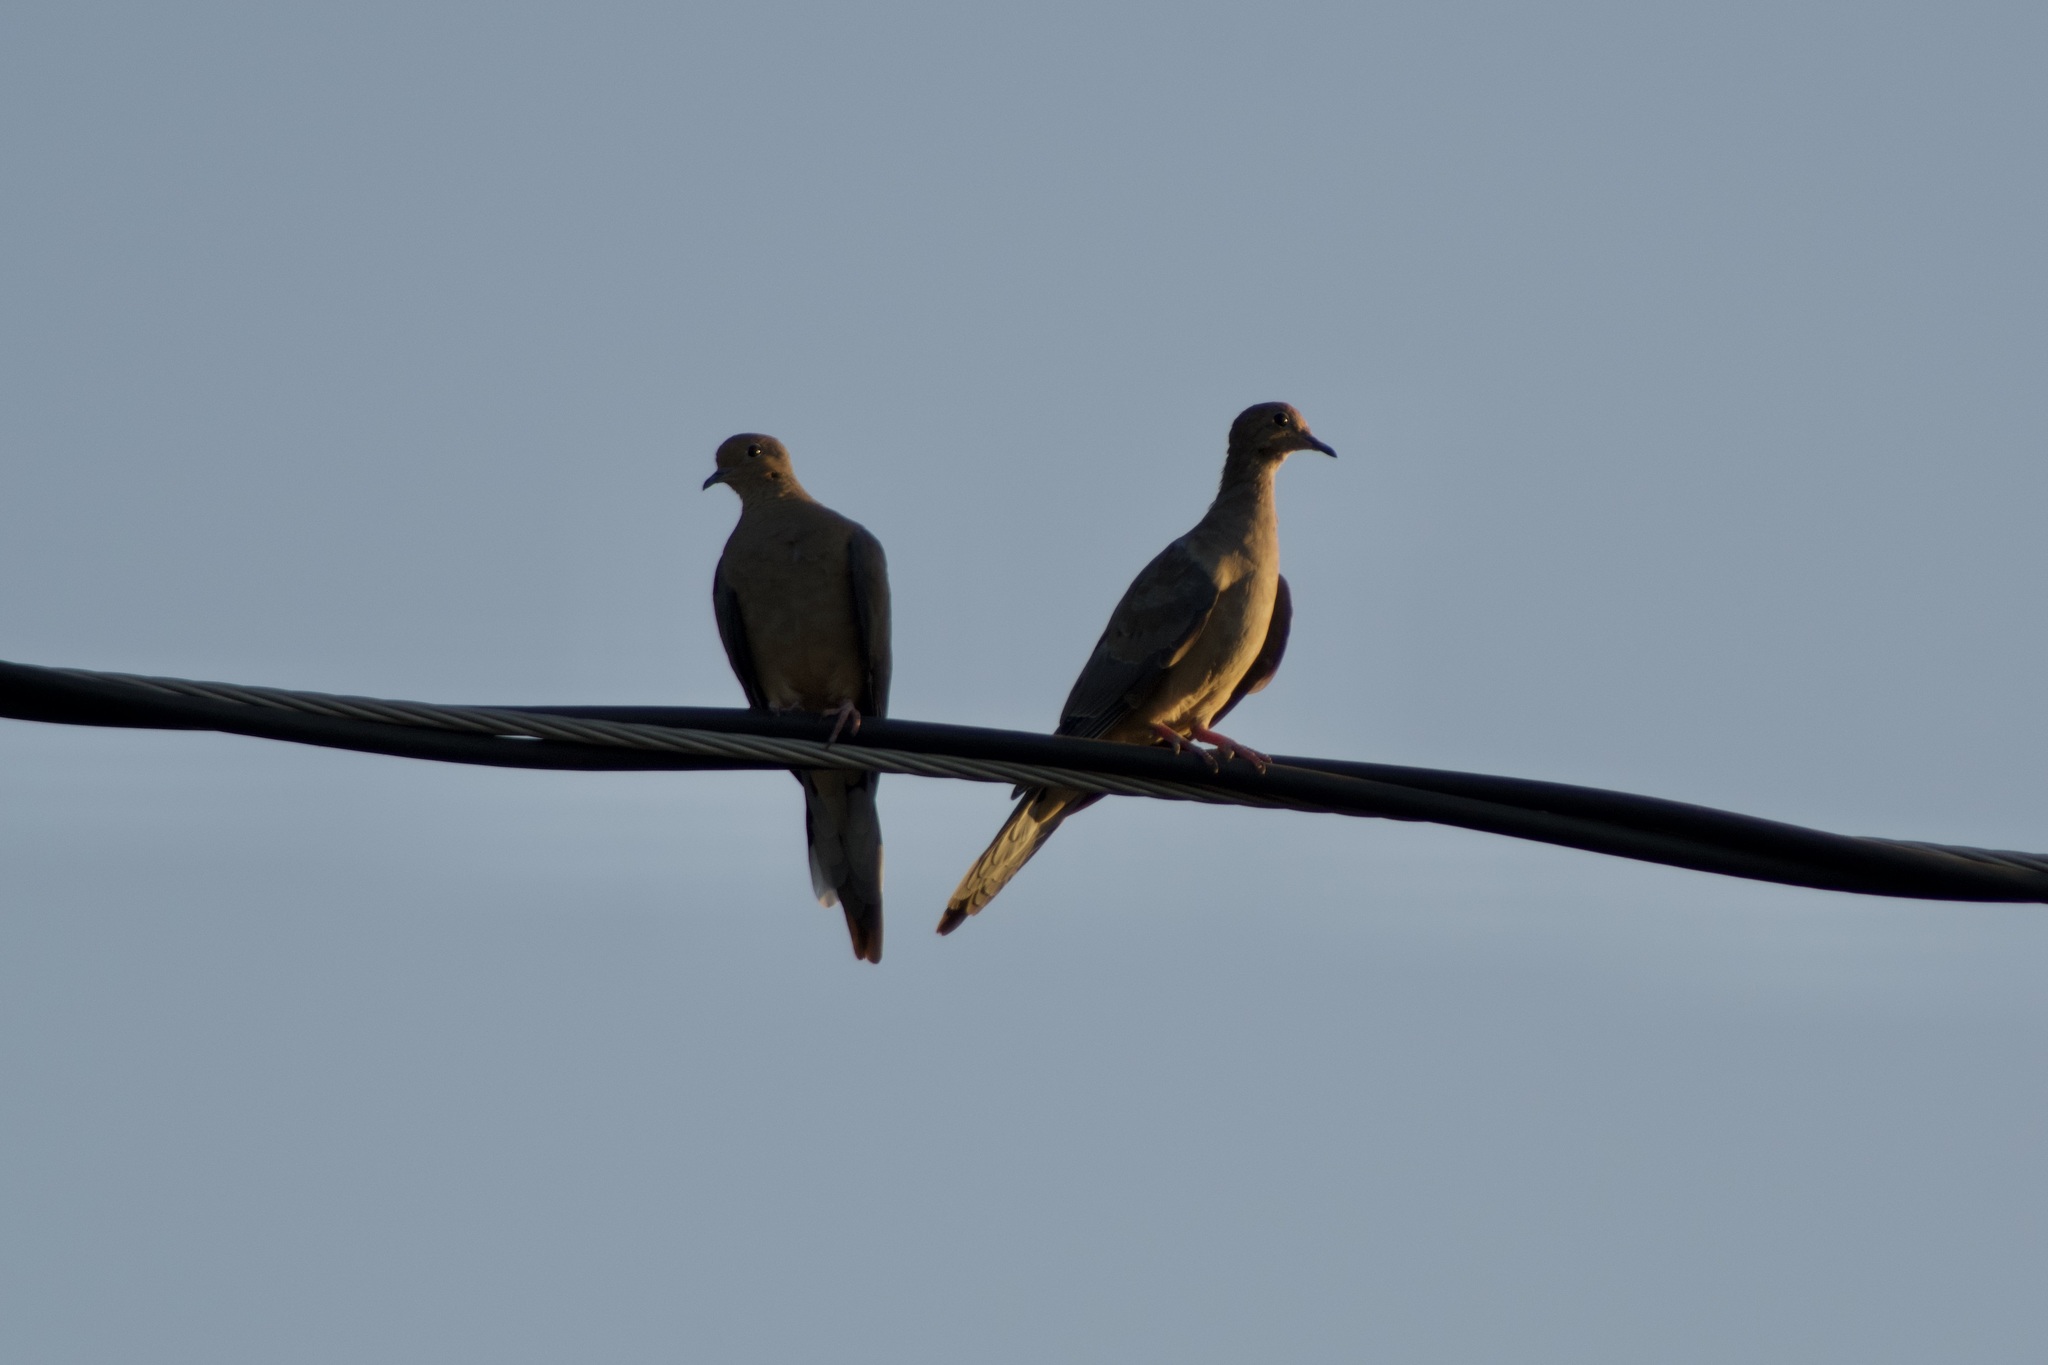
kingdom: Animalia
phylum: Chordata
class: Aves
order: Columbiformes
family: Columbidae
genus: Zenaida
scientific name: Zenaida macroura
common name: Mourning dove
